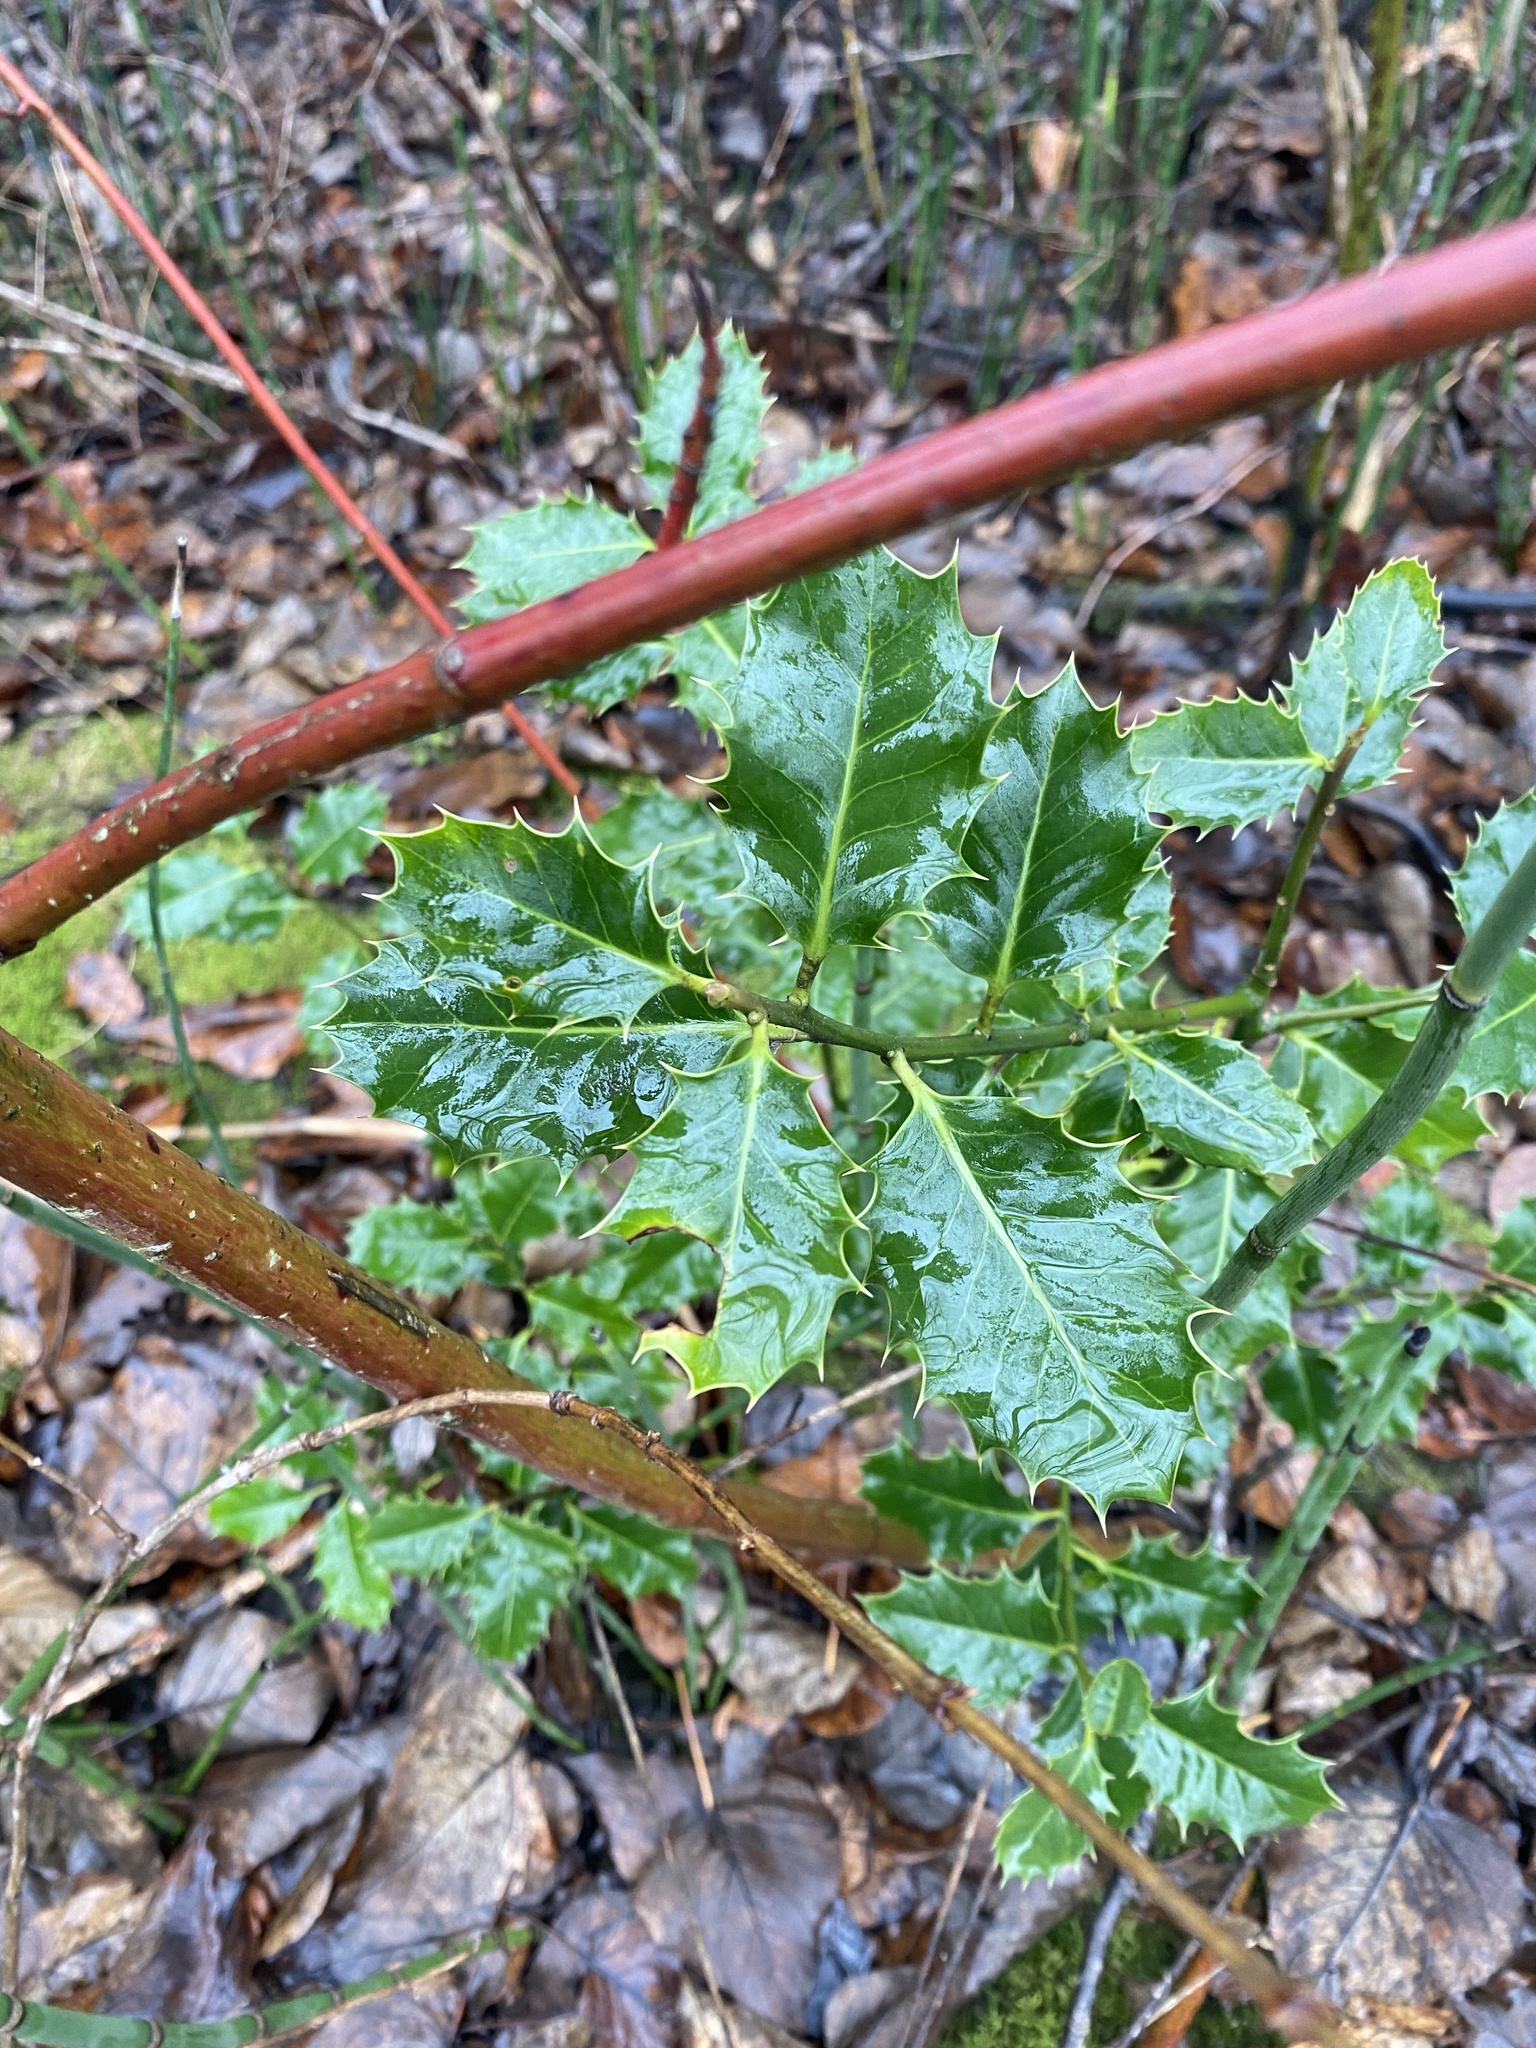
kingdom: Plantae
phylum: Tracheophyta
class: Magnoliopsida
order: Aquifoliales
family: Aquifoliaceae
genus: Ilex
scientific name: Ilex aquifolium
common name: English holly
